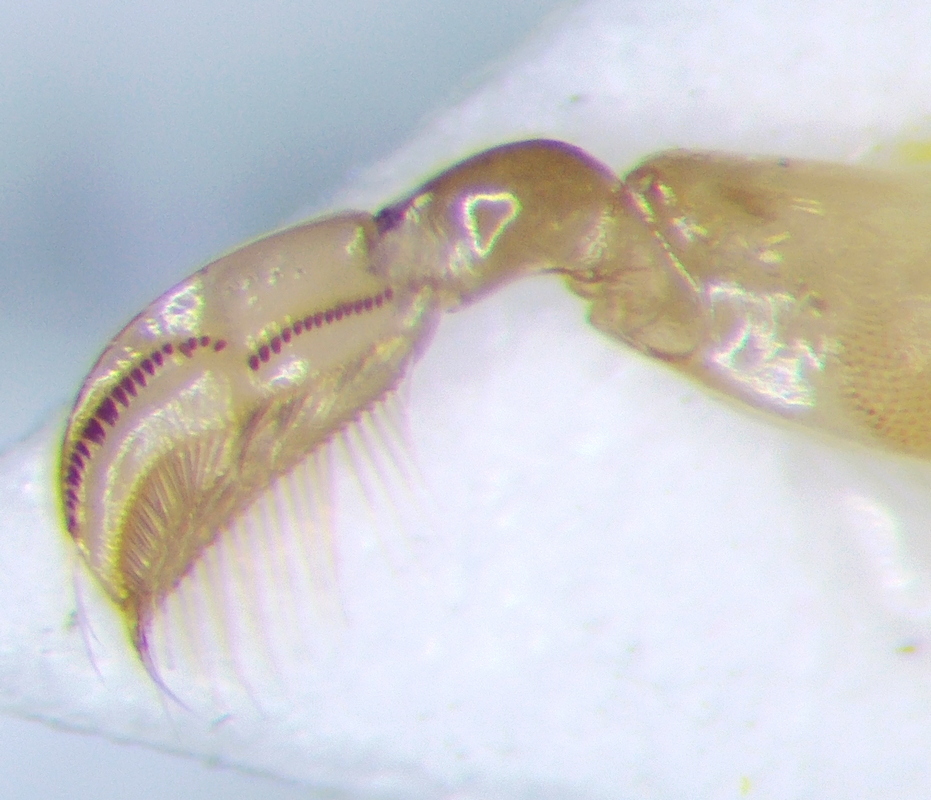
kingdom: Animalia
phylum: Arthropoda
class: Insecta
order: Hemiptera
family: Corixidae
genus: Sigara
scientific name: Sigara striata
